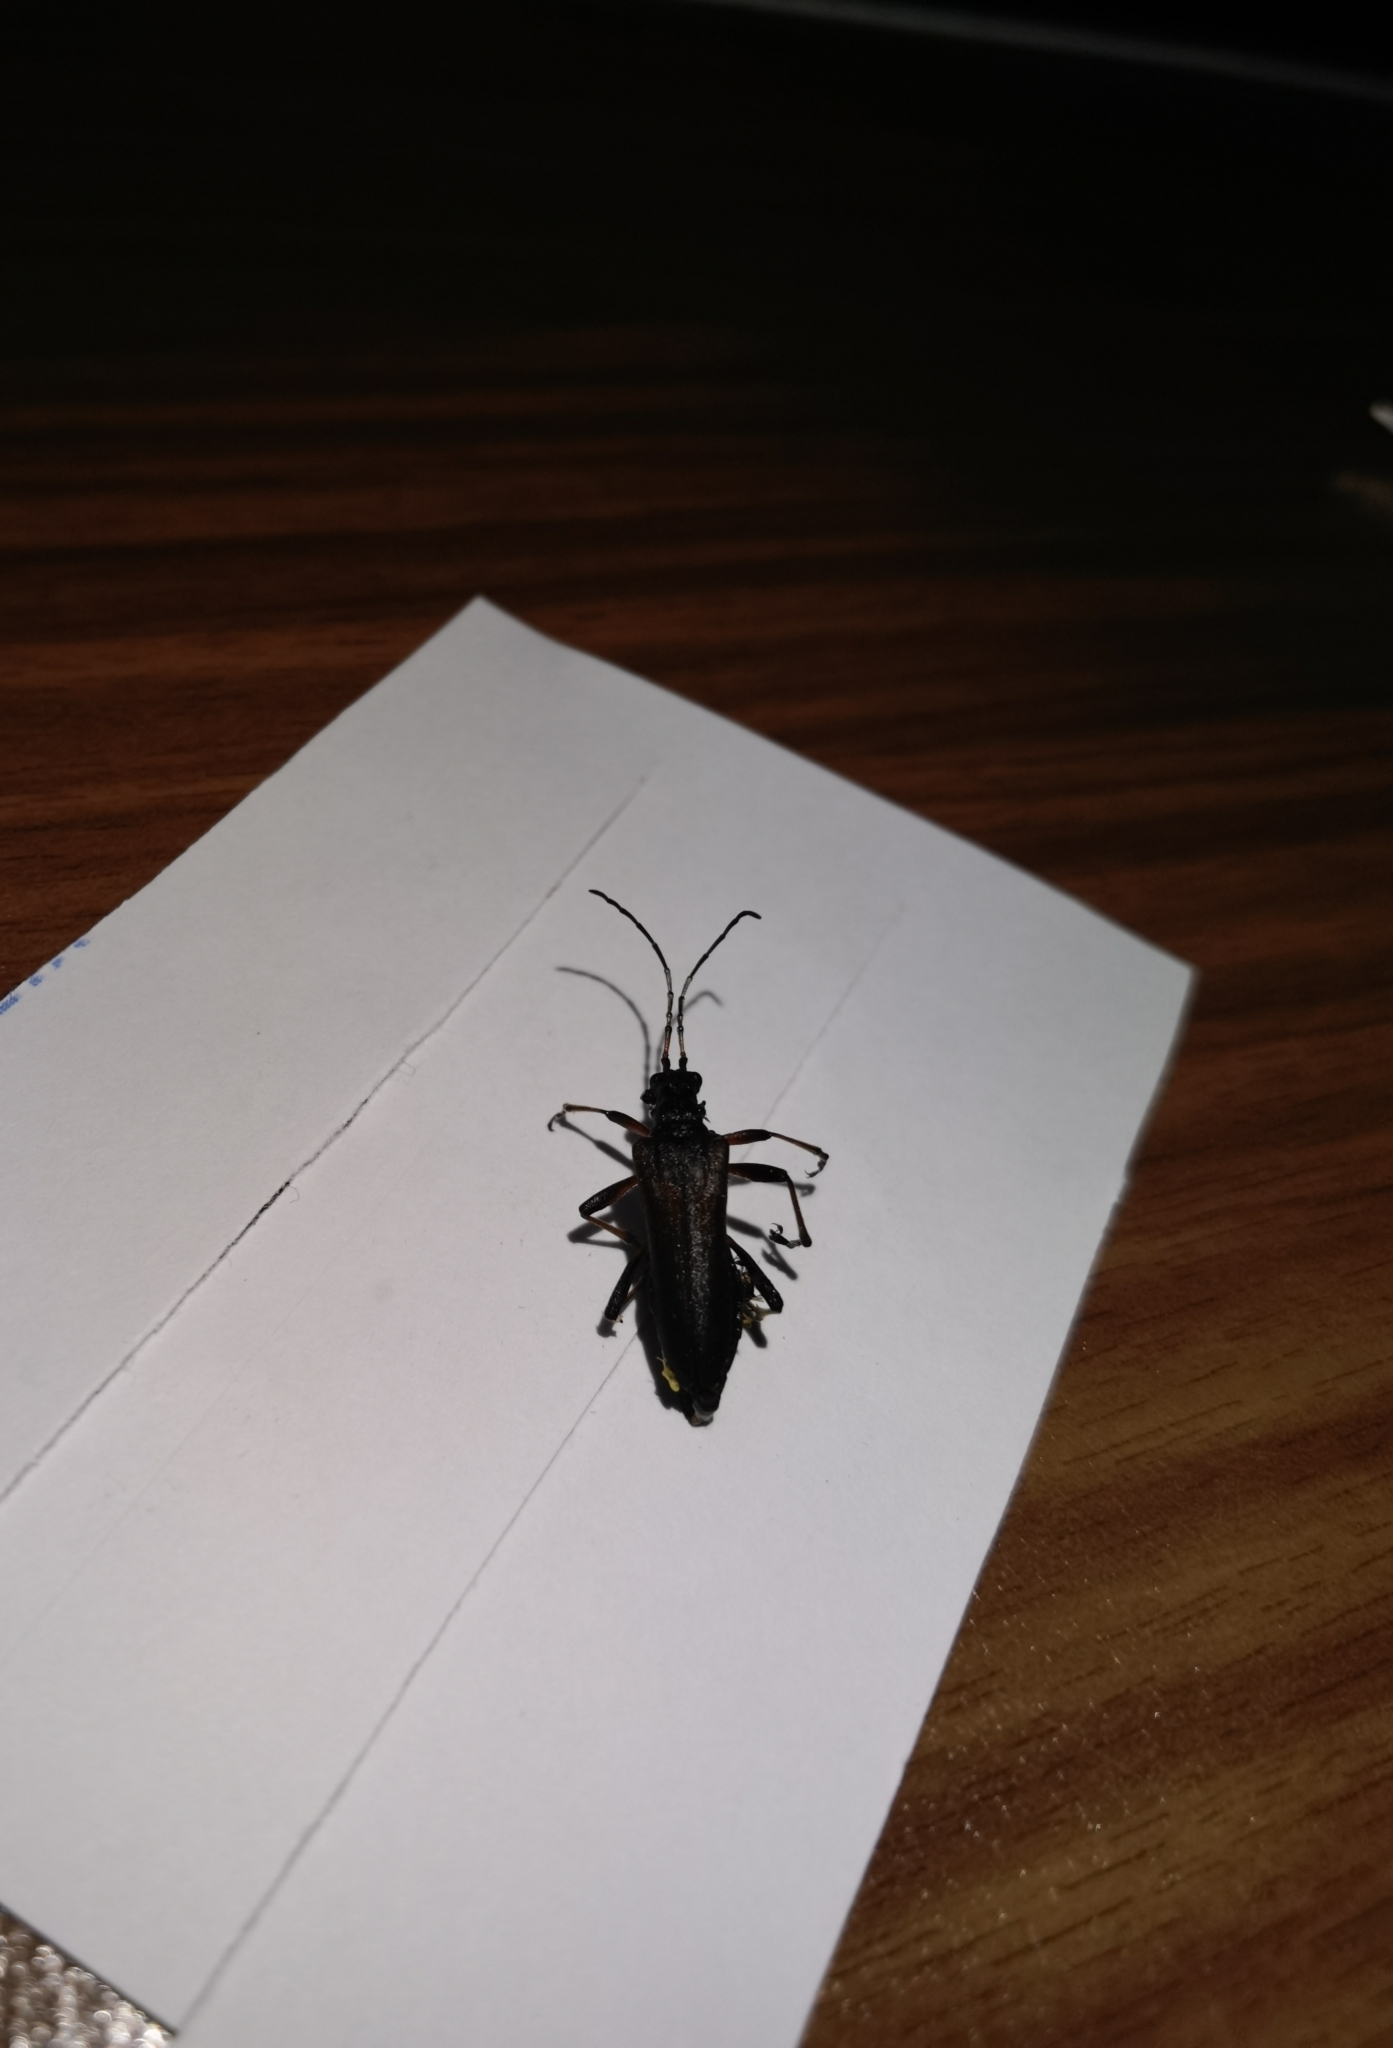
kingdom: Animalia
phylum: Arthropoda
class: Insecta
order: Coleoptera
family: Cerambycidae
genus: Stenocorus
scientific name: Stenocorus meridianus
